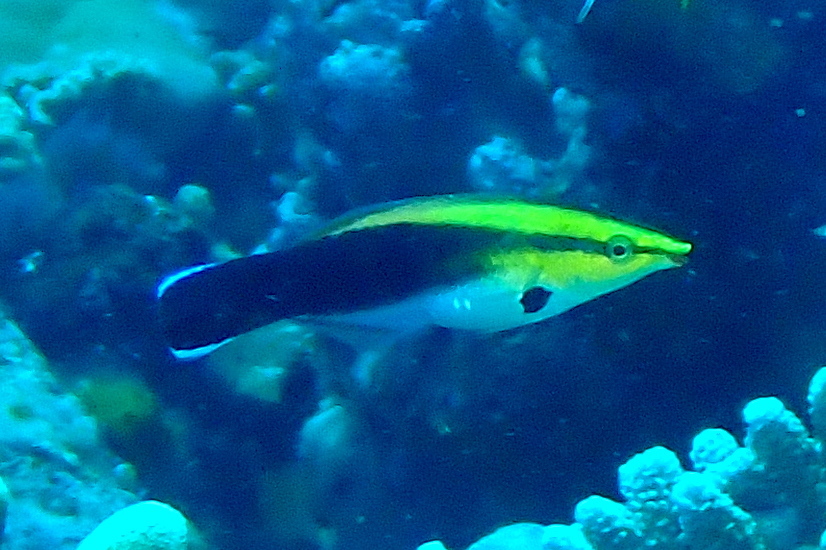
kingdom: Animalia
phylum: Chordata
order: Perciformes
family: Labridae
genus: Labroides
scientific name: Labroides pectoralis
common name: Black-spot cleaner wrasse
